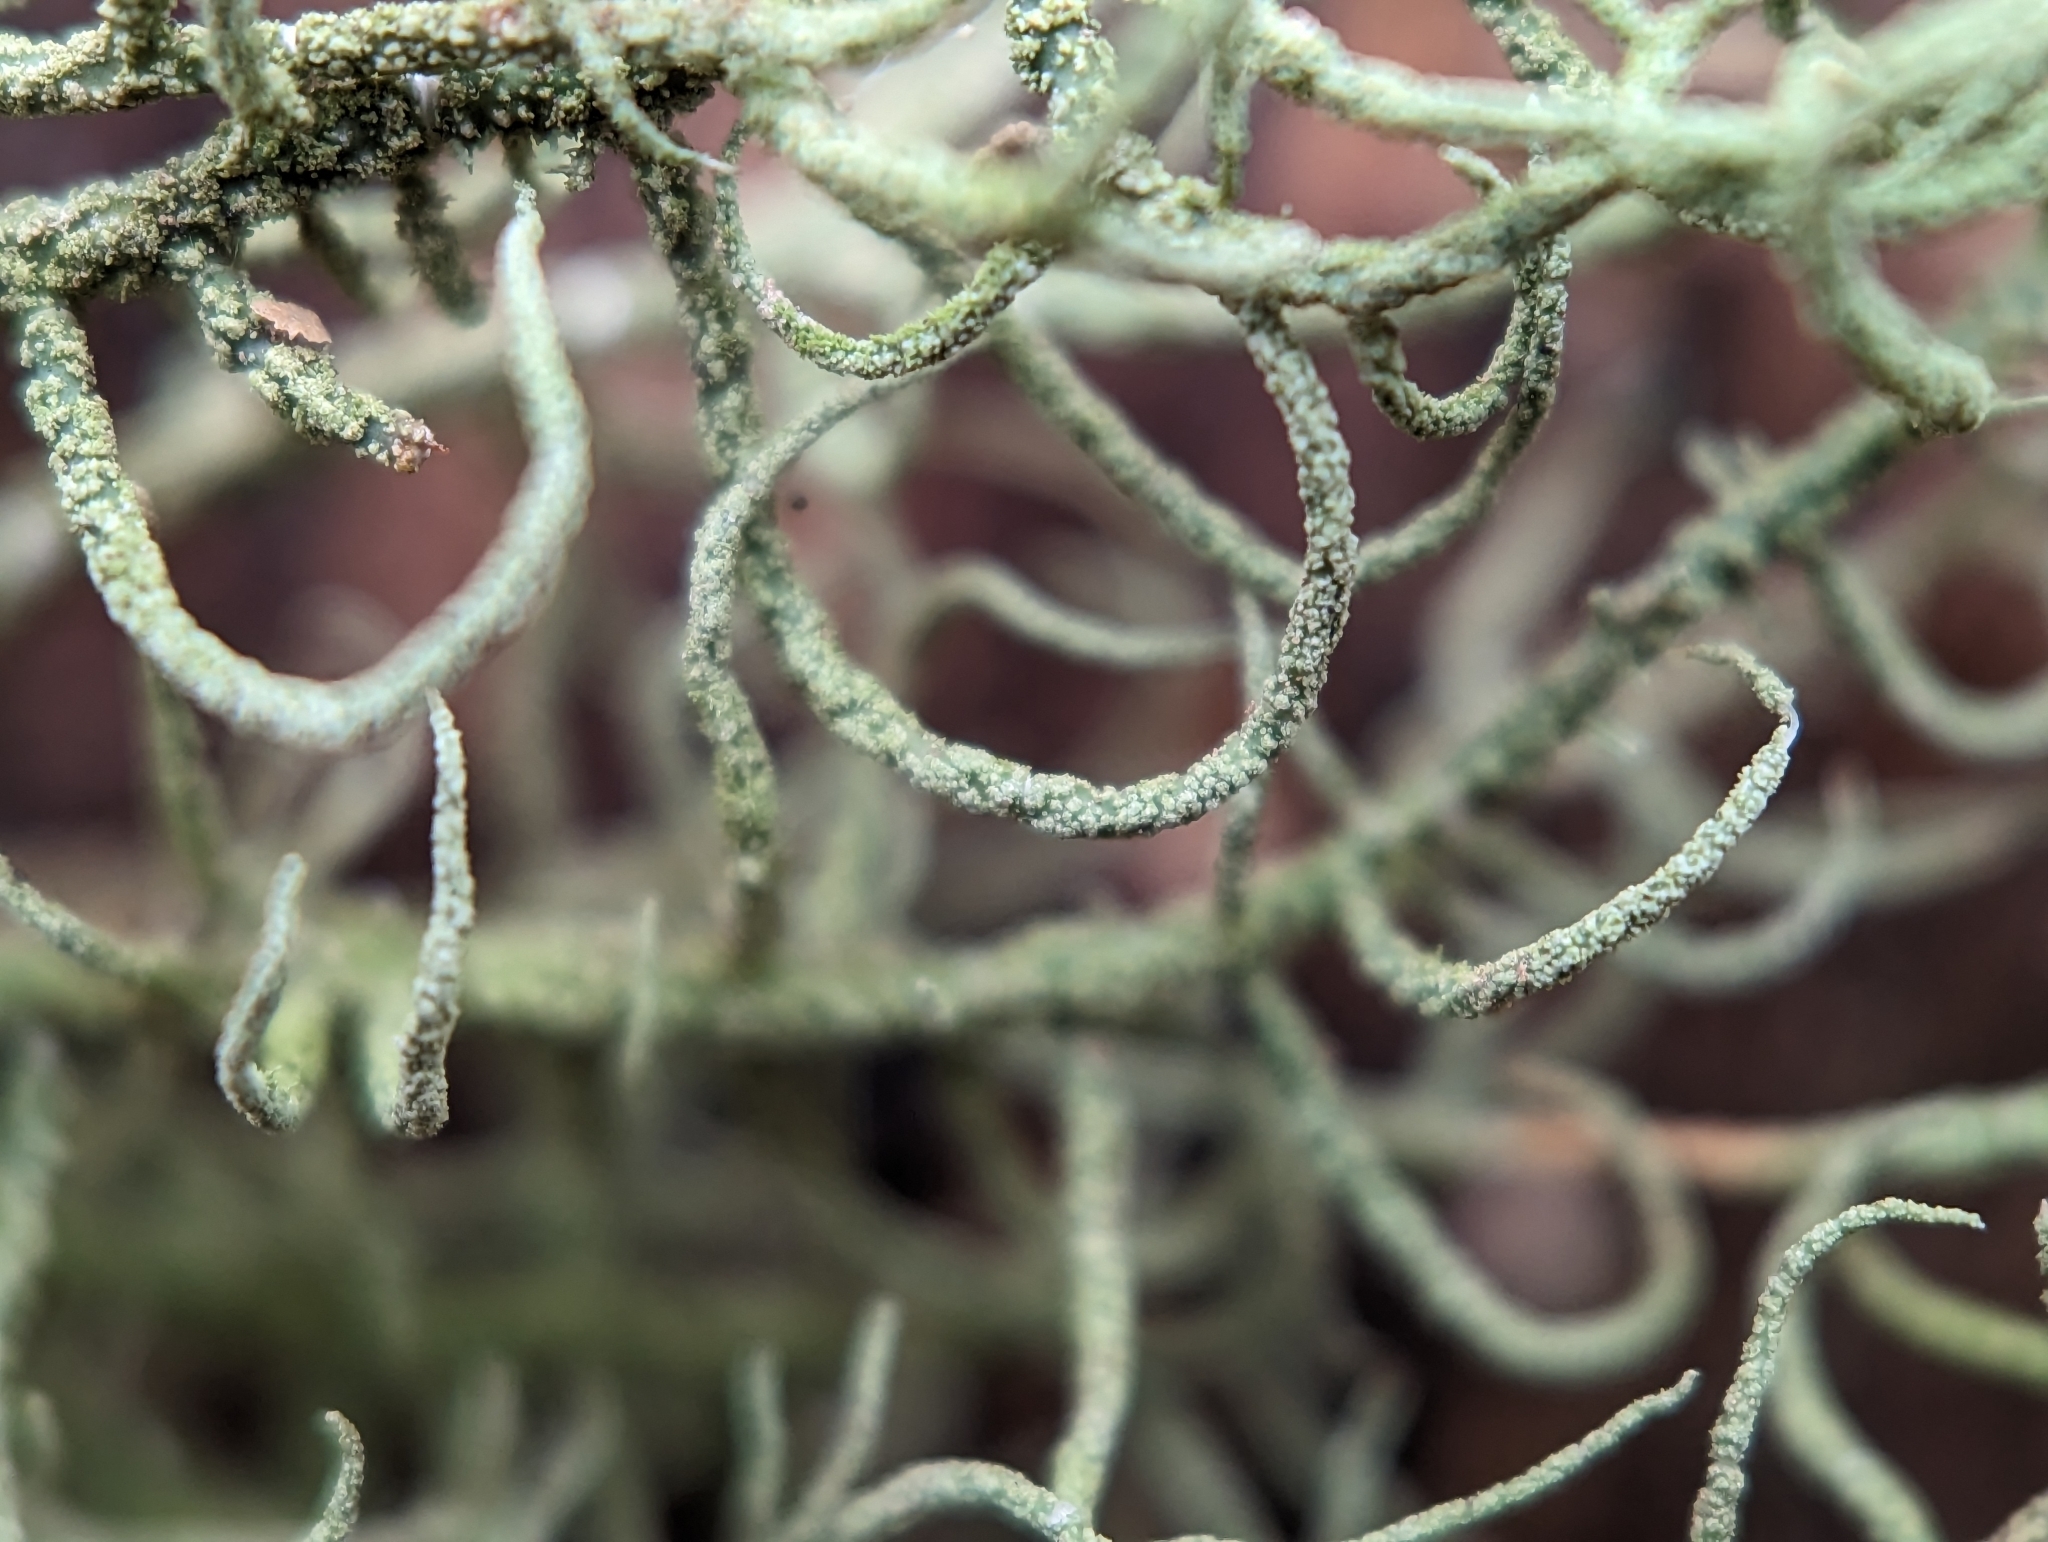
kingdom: Fungi
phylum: Ascomycota
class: Lecanoromycetes
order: Lecanorales
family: Parmeliaceae
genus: Usnea
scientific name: Usnea mutabilis
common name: Bloody beard
